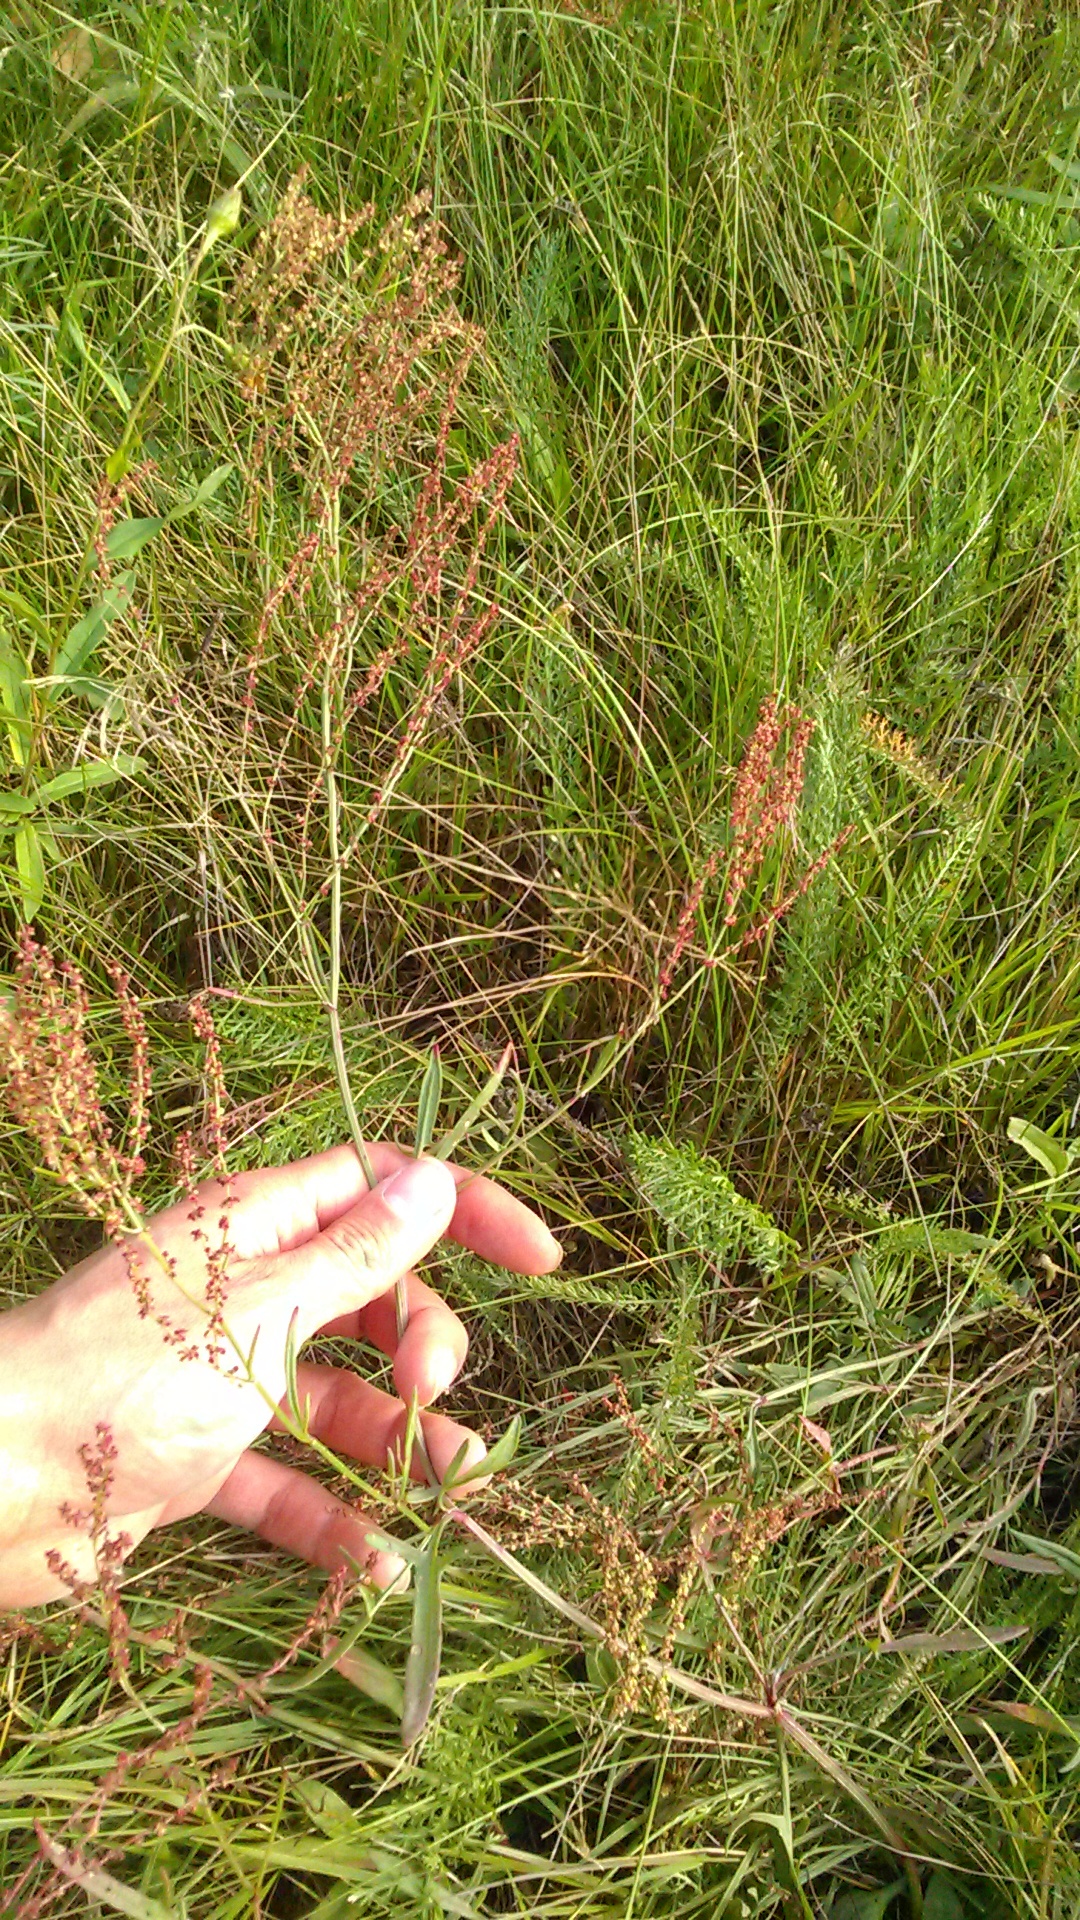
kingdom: Plantae
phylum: Tracheophyta
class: Magnoliopsida
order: Caryophyllales
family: Polygonaceae
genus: Rumex
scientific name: Rumex acetosella
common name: Common sheep sorrel
